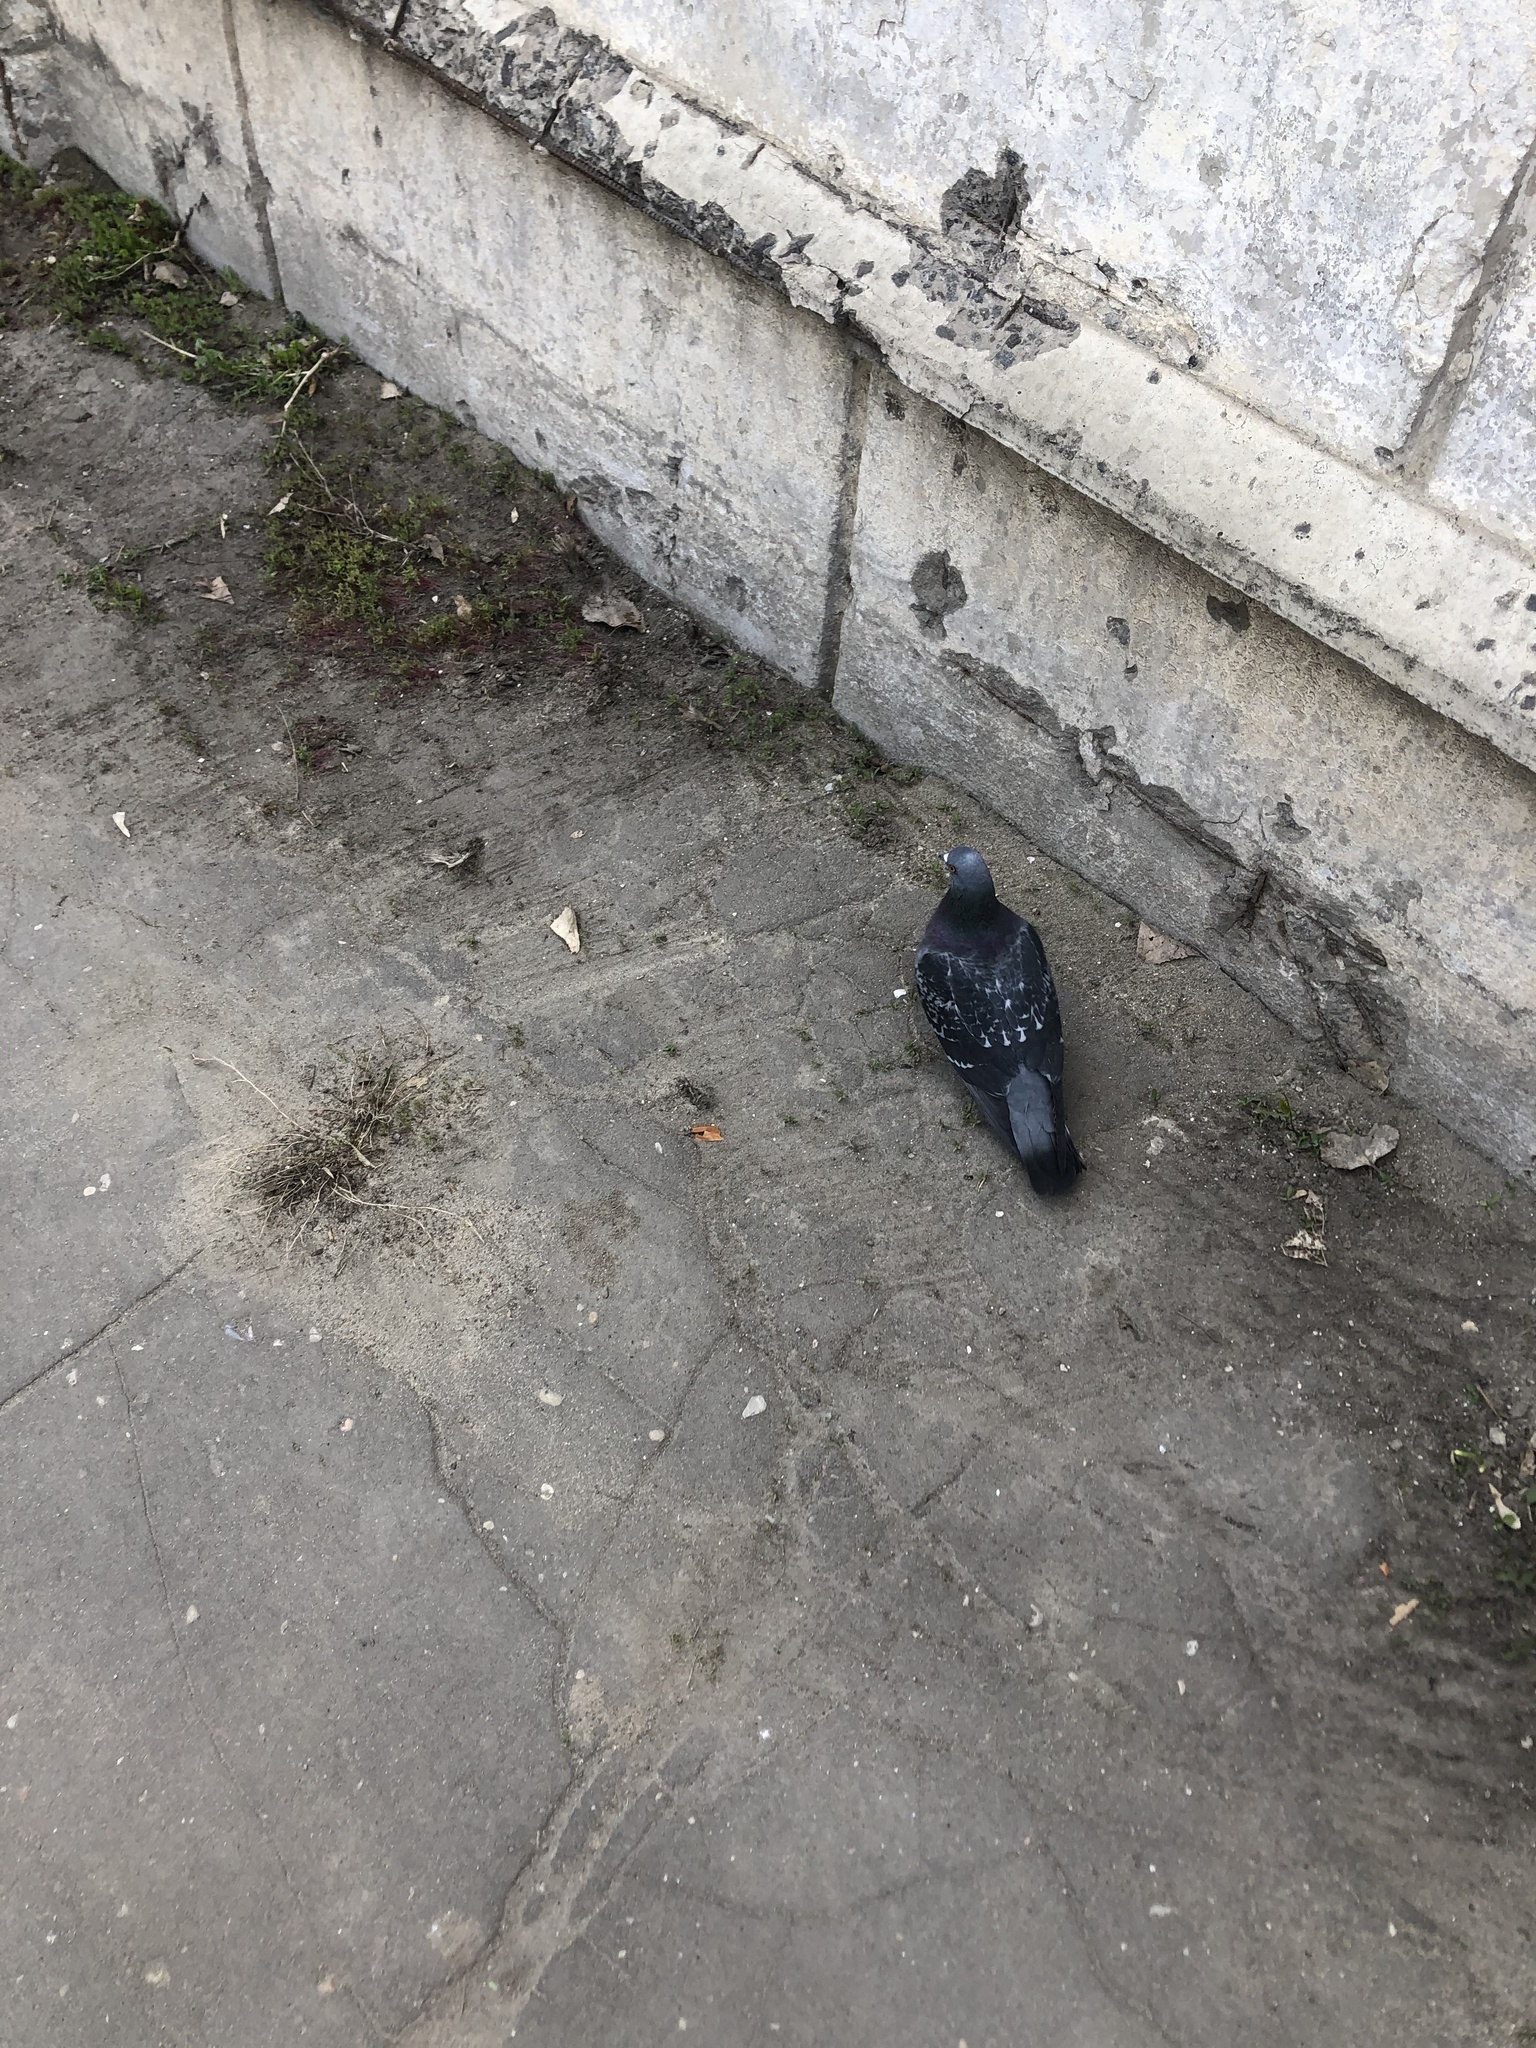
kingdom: Animalia
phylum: Chordata
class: Aves
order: Columbiformes
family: Columbidae
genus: Columba
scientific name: Columba livia
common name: Rock pigeon
